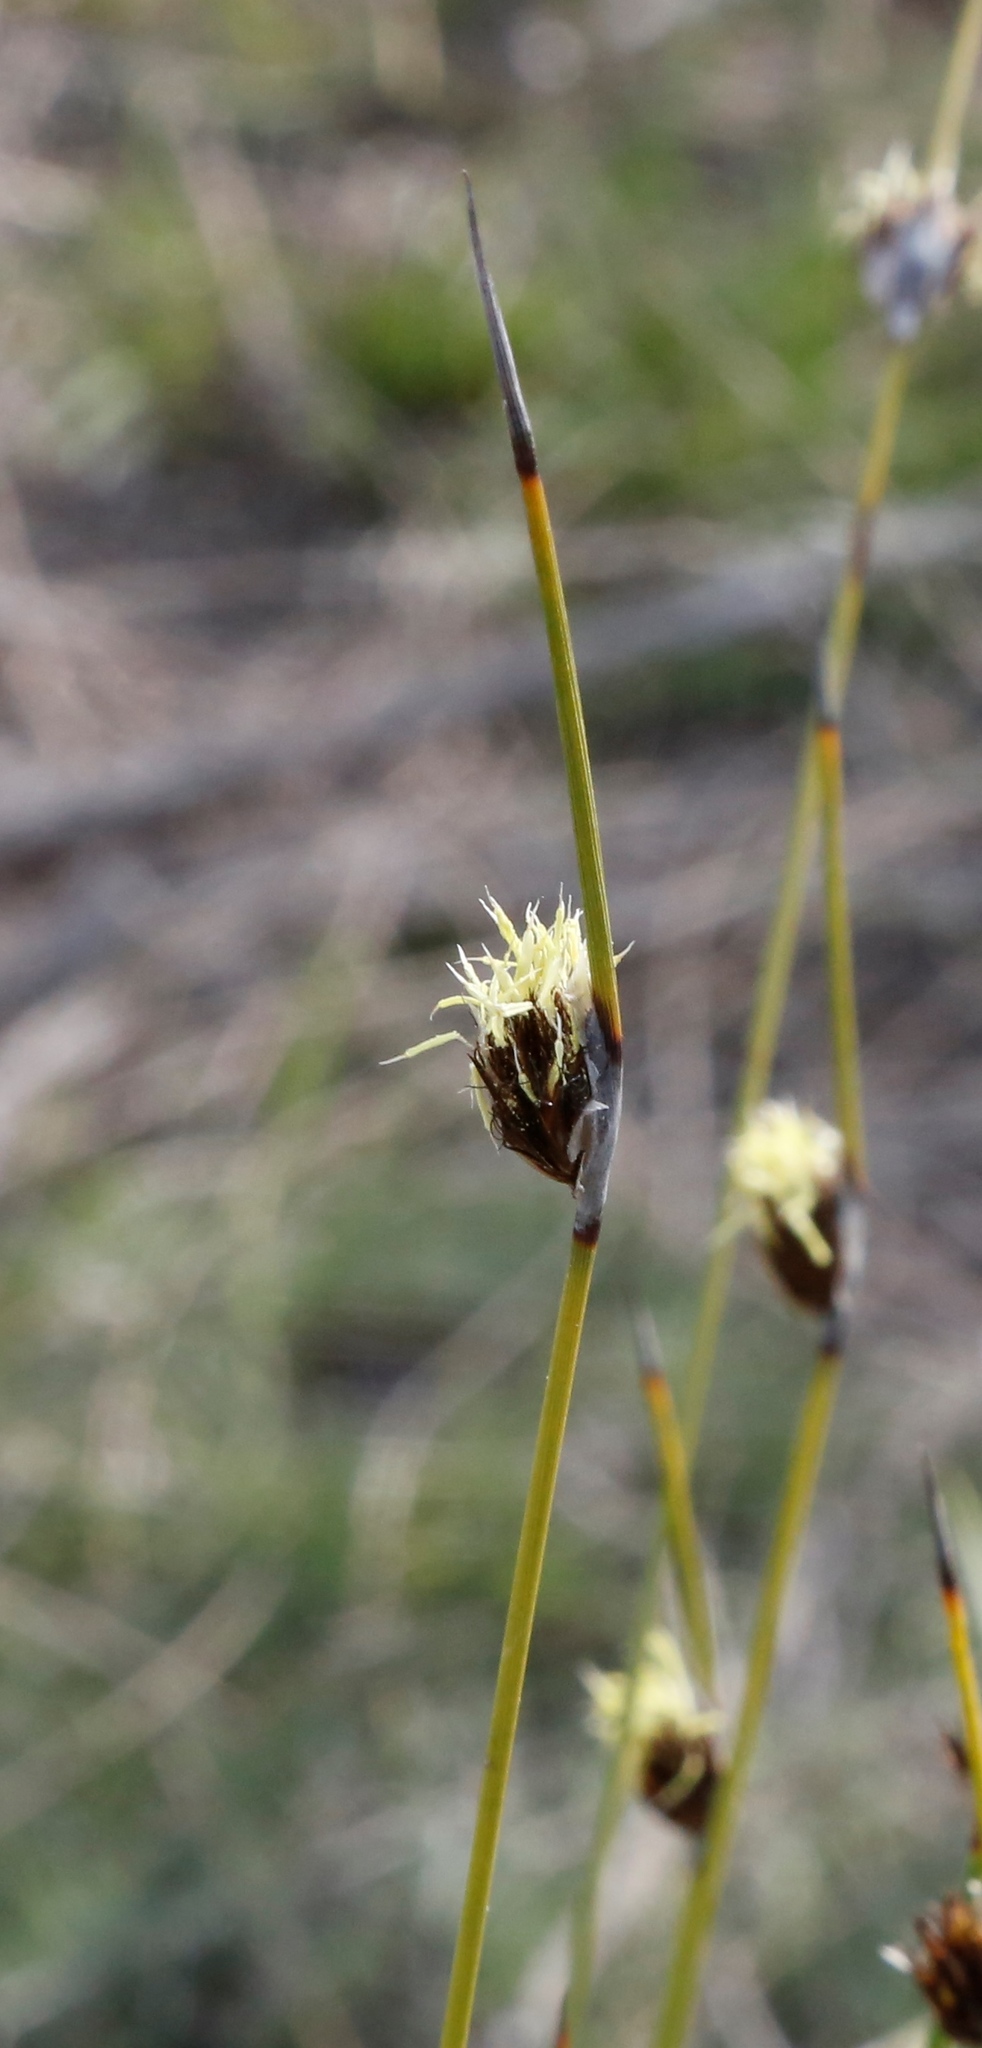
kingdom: Plantae
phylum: Tracheophyta
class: Liliopsida
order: Poales
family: Cyperaceae
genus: Mesomelaena
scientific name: Mesomelaena stygia
